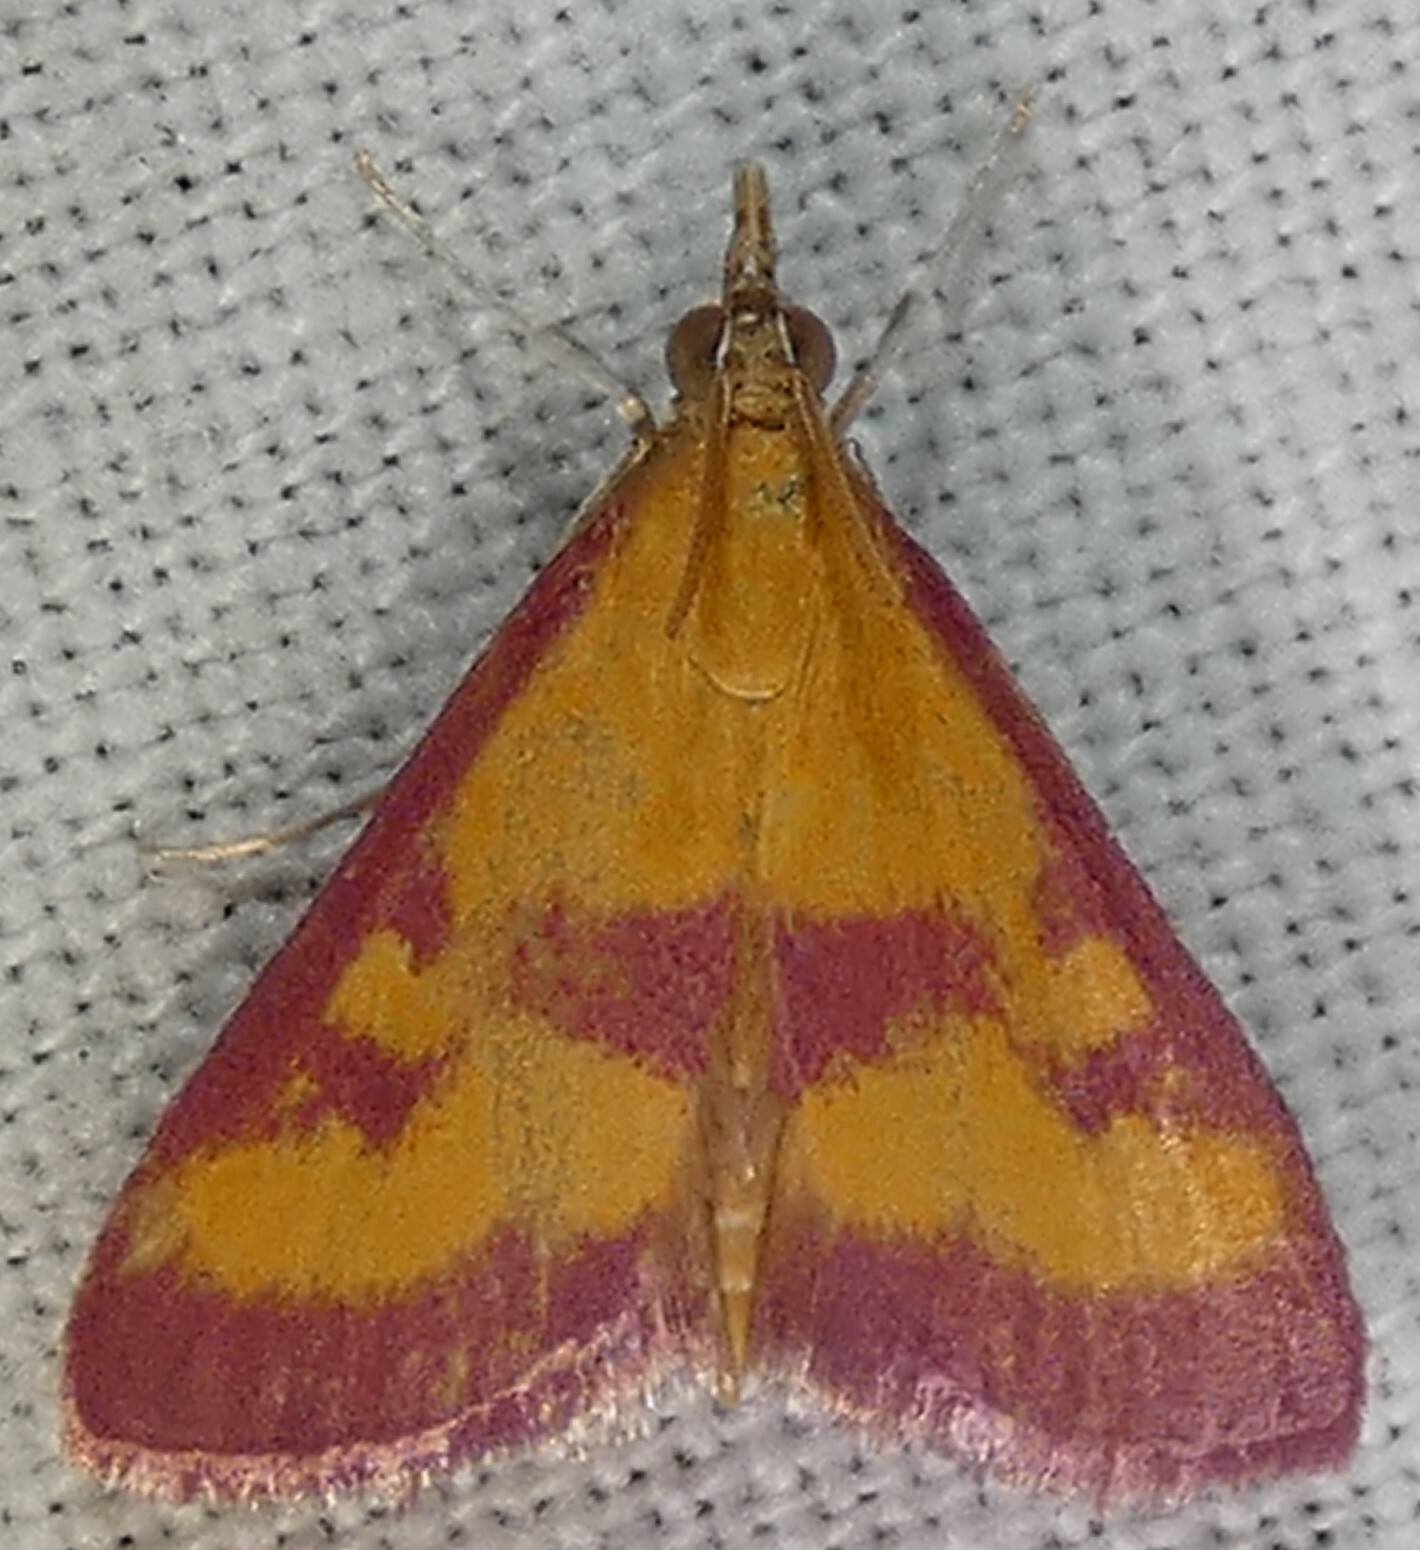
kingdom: Animalia
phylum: Arthropoda
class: Insecta
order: Lepidoptera
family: Crambidae
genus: Pyrausta
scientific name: Pyrausta laticlavia
